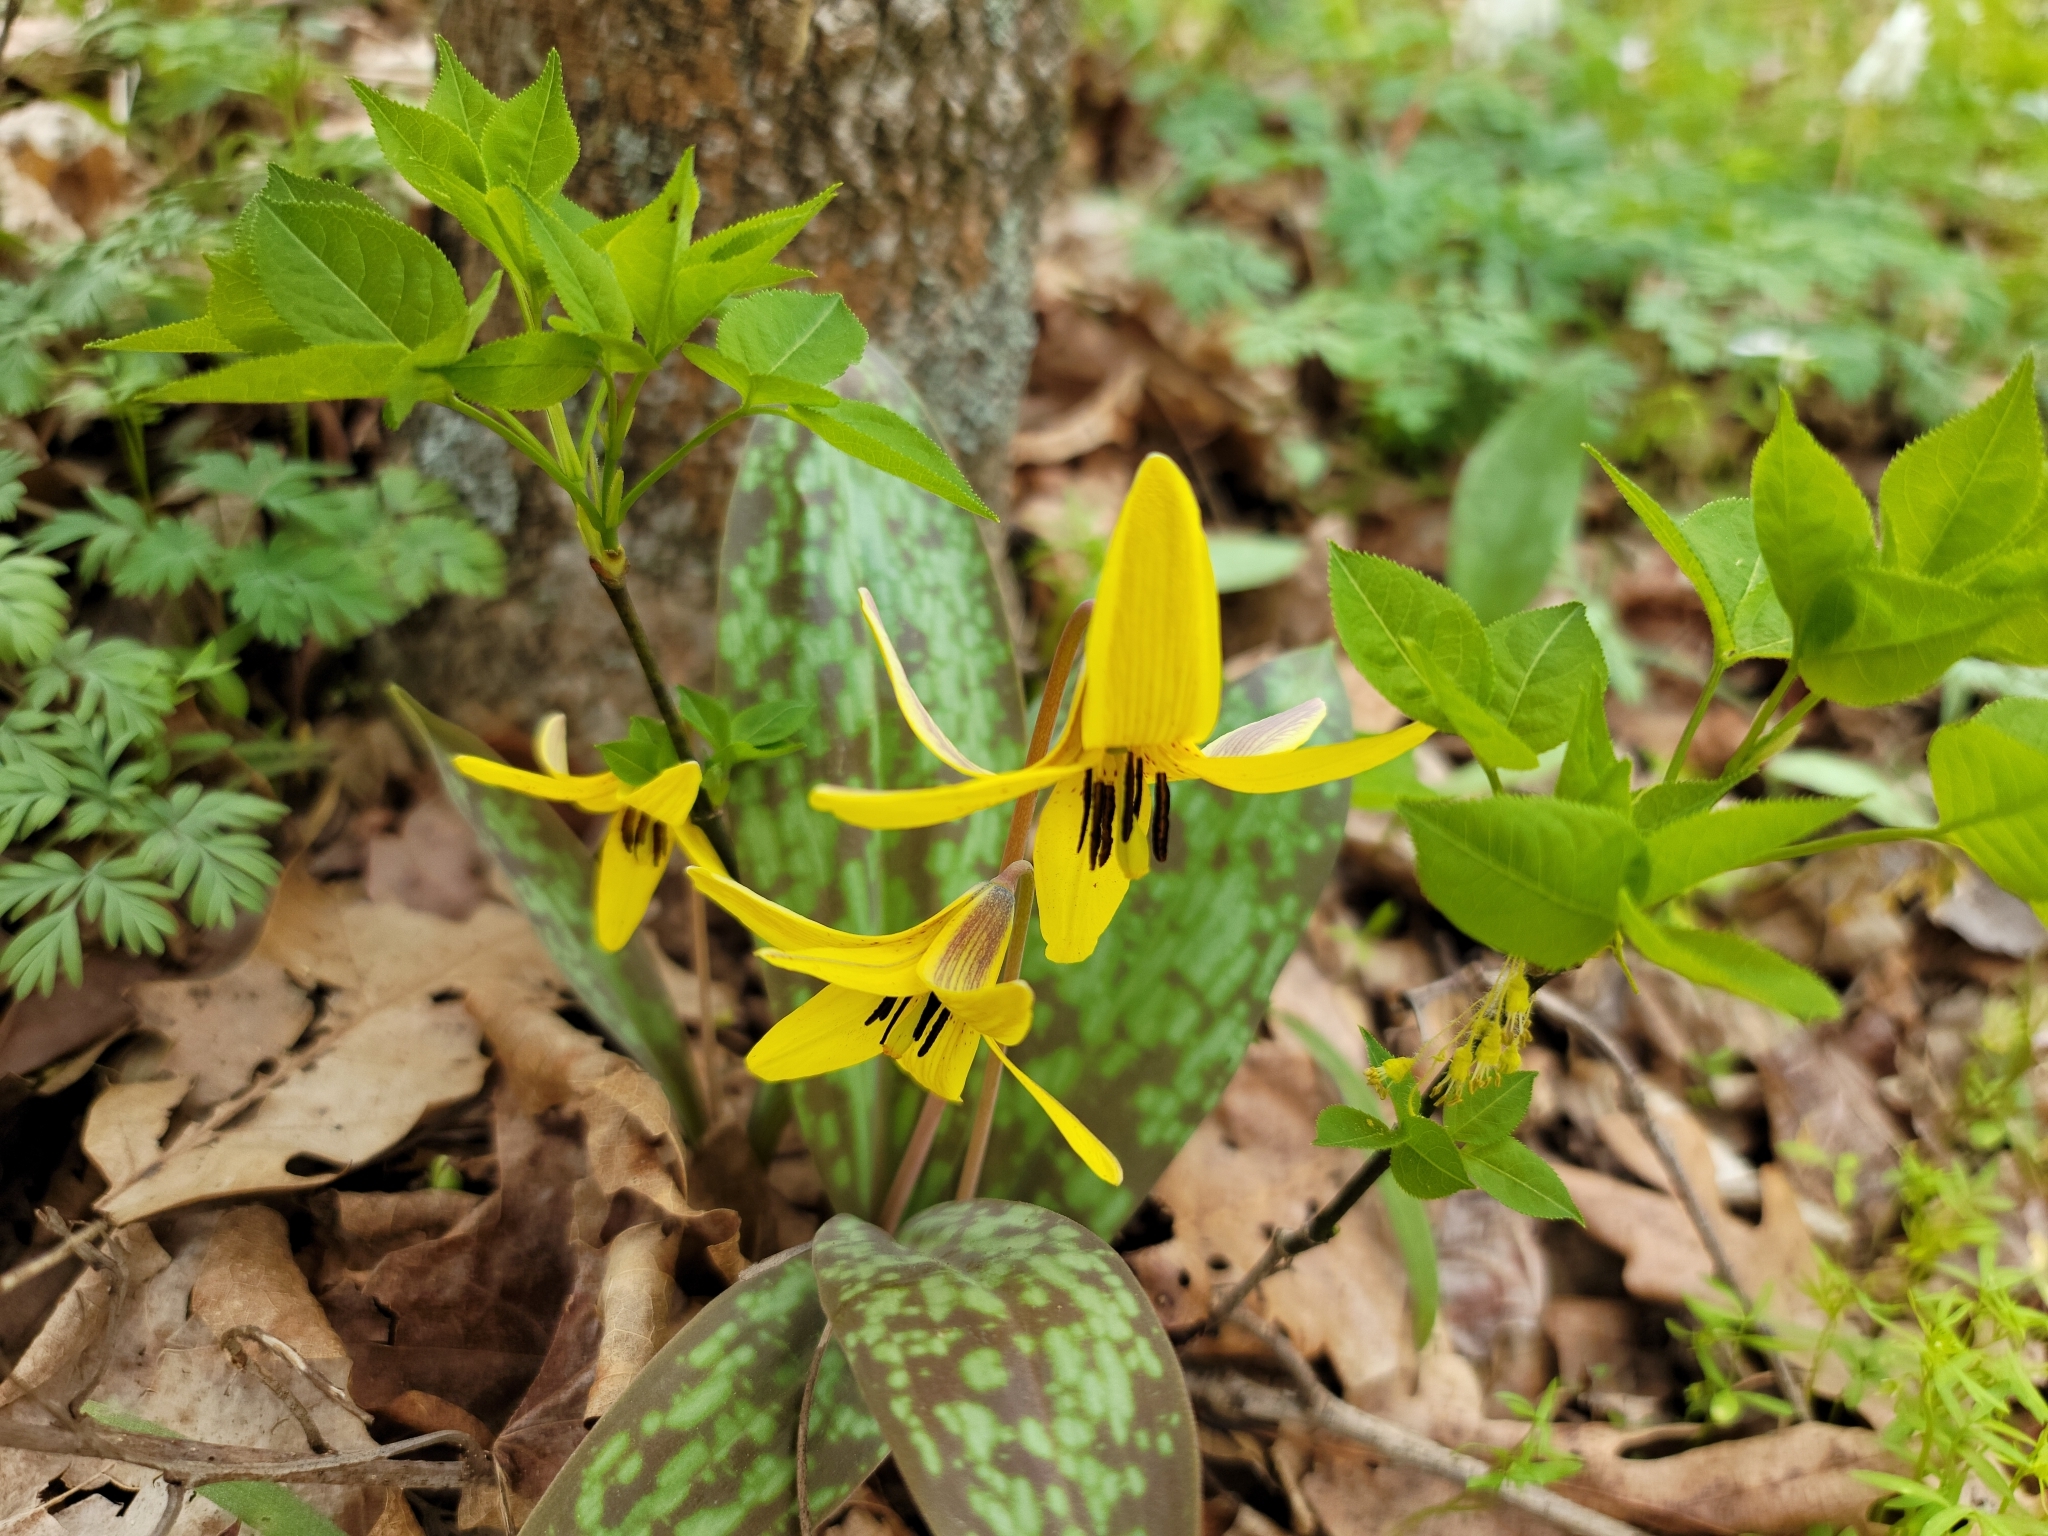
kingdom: Plantae
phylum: Tracheophyta
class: Liliopsida
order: Liliales
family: Liliaceae
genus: Erythronium
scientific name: Erythronium americanum
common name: Yellow adder's-tongue
